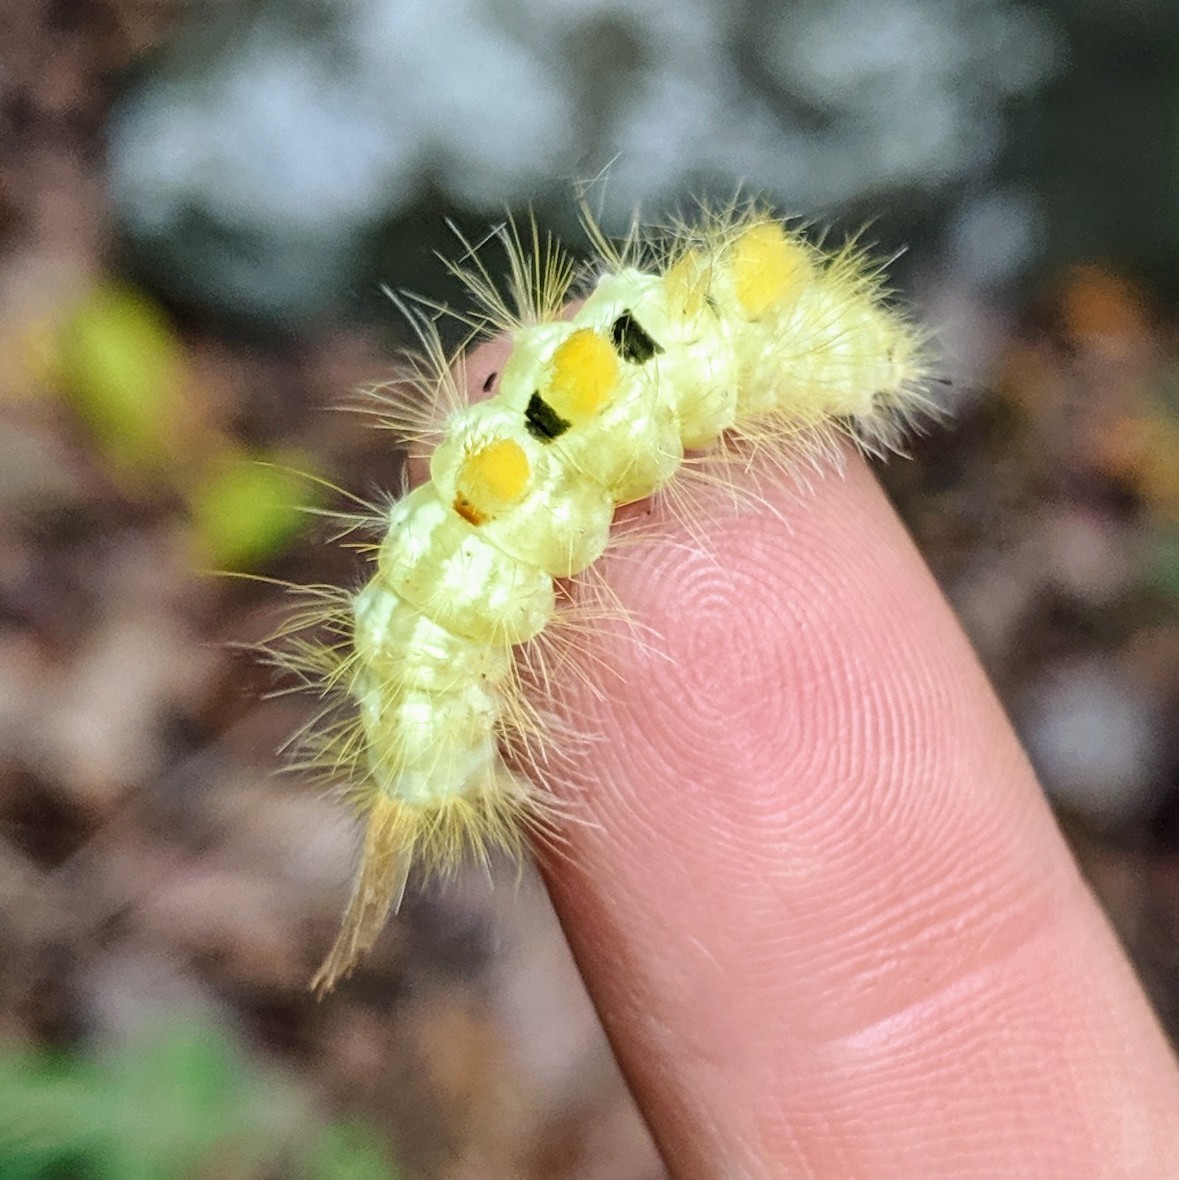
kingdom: Animalia
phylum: Arthropoda
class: Insecta
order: Lepidoptera
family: Erebidae
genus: Orgyia
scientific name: Orgyia definita
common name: Definite tussock moth
